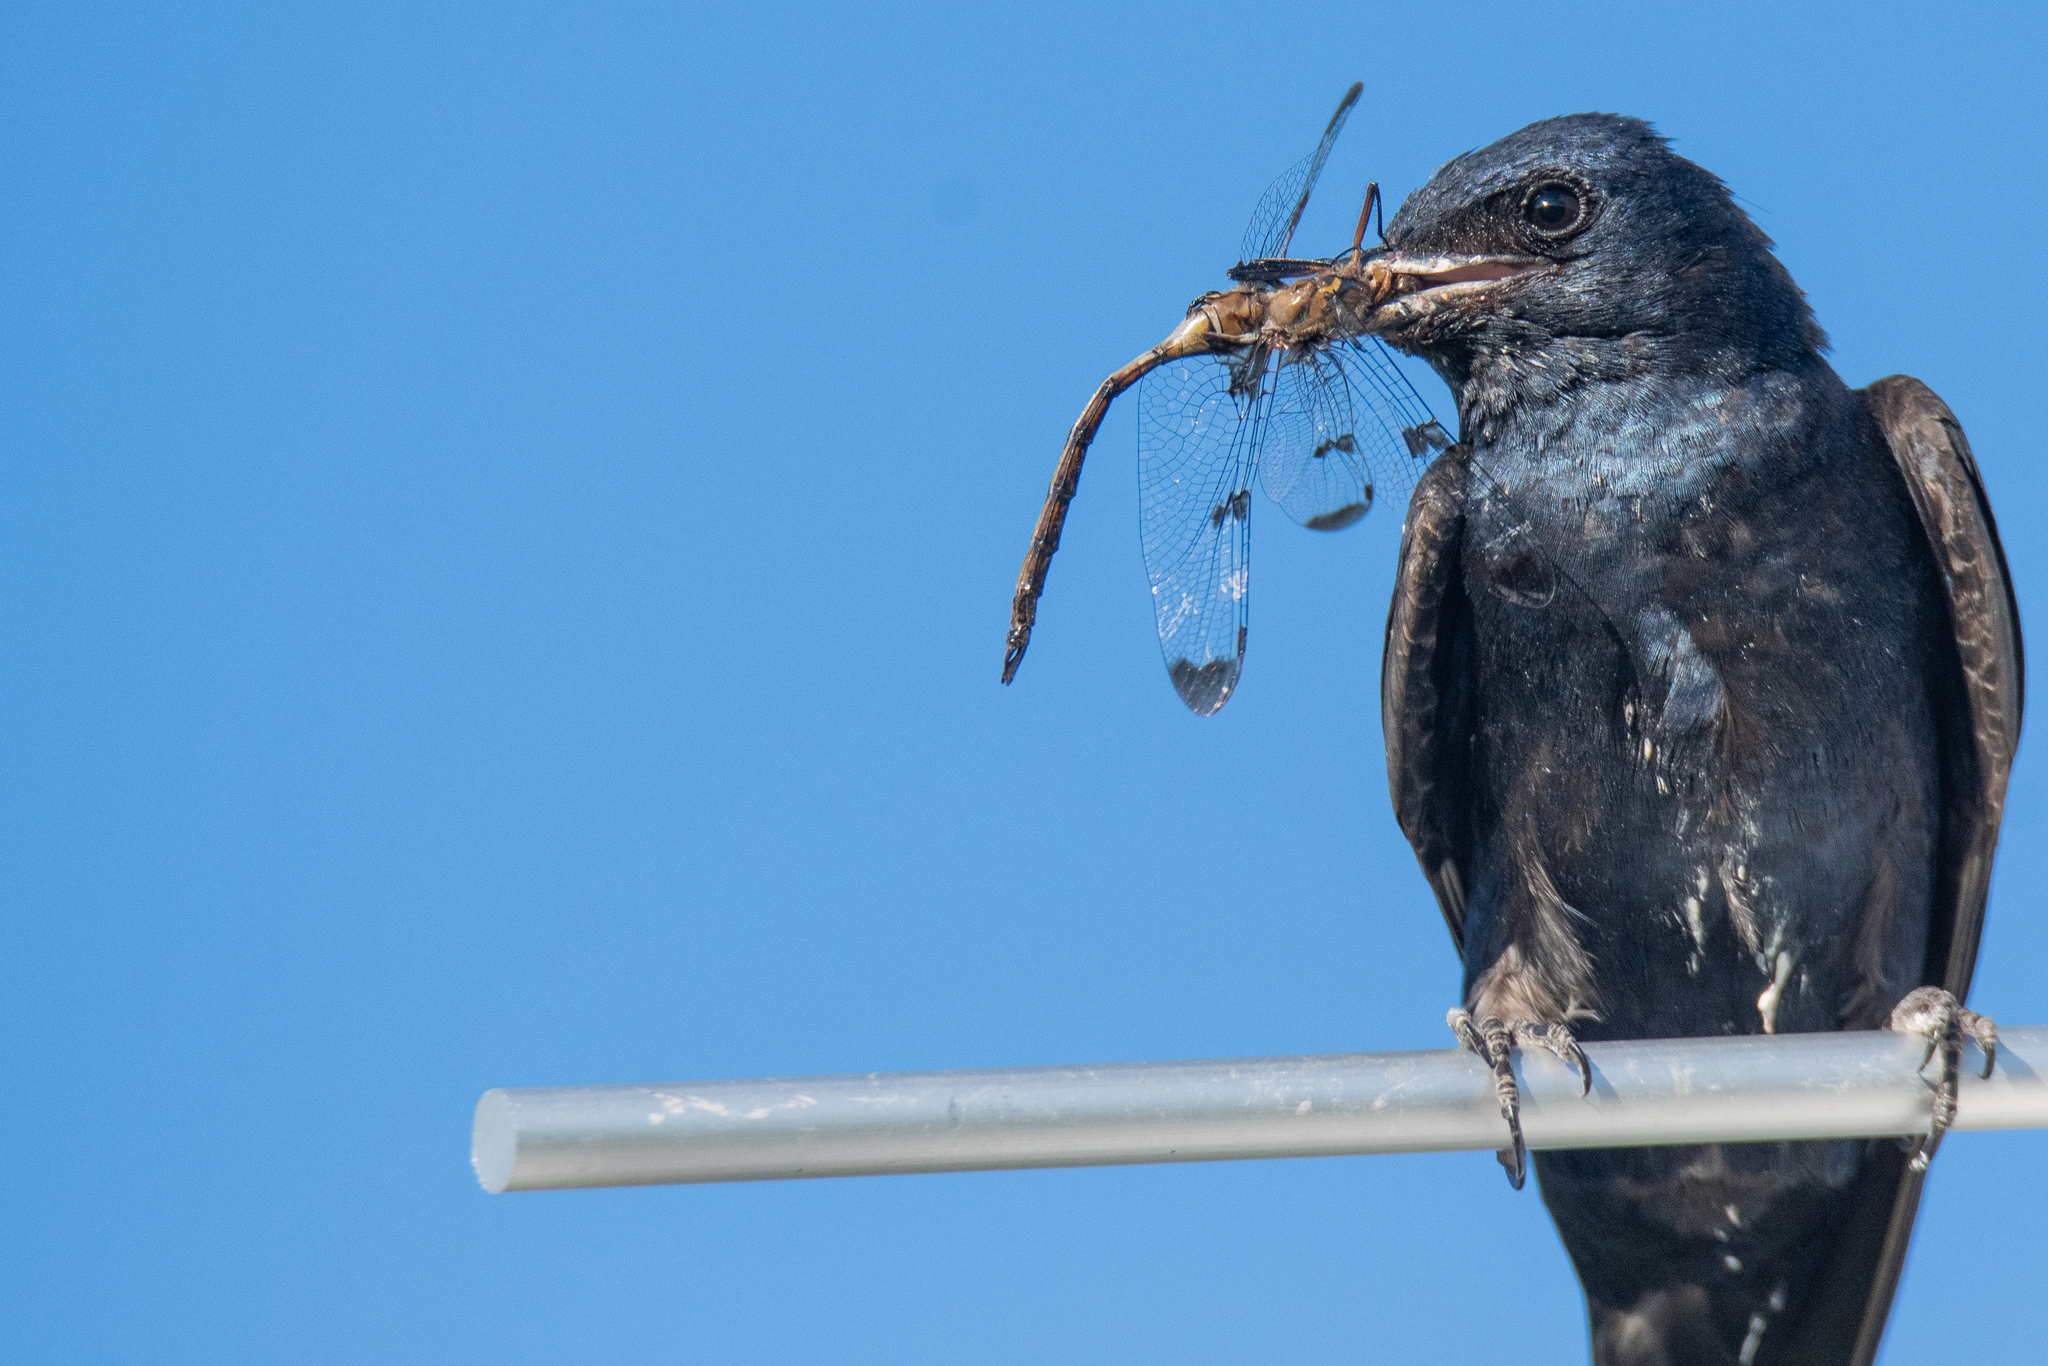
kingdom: Animalia
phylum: Arthropoda
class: Insecta
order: Odonata
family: Corduliidae
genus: Epitheca
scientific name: Epitheca princeps
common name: Prince baskettail
